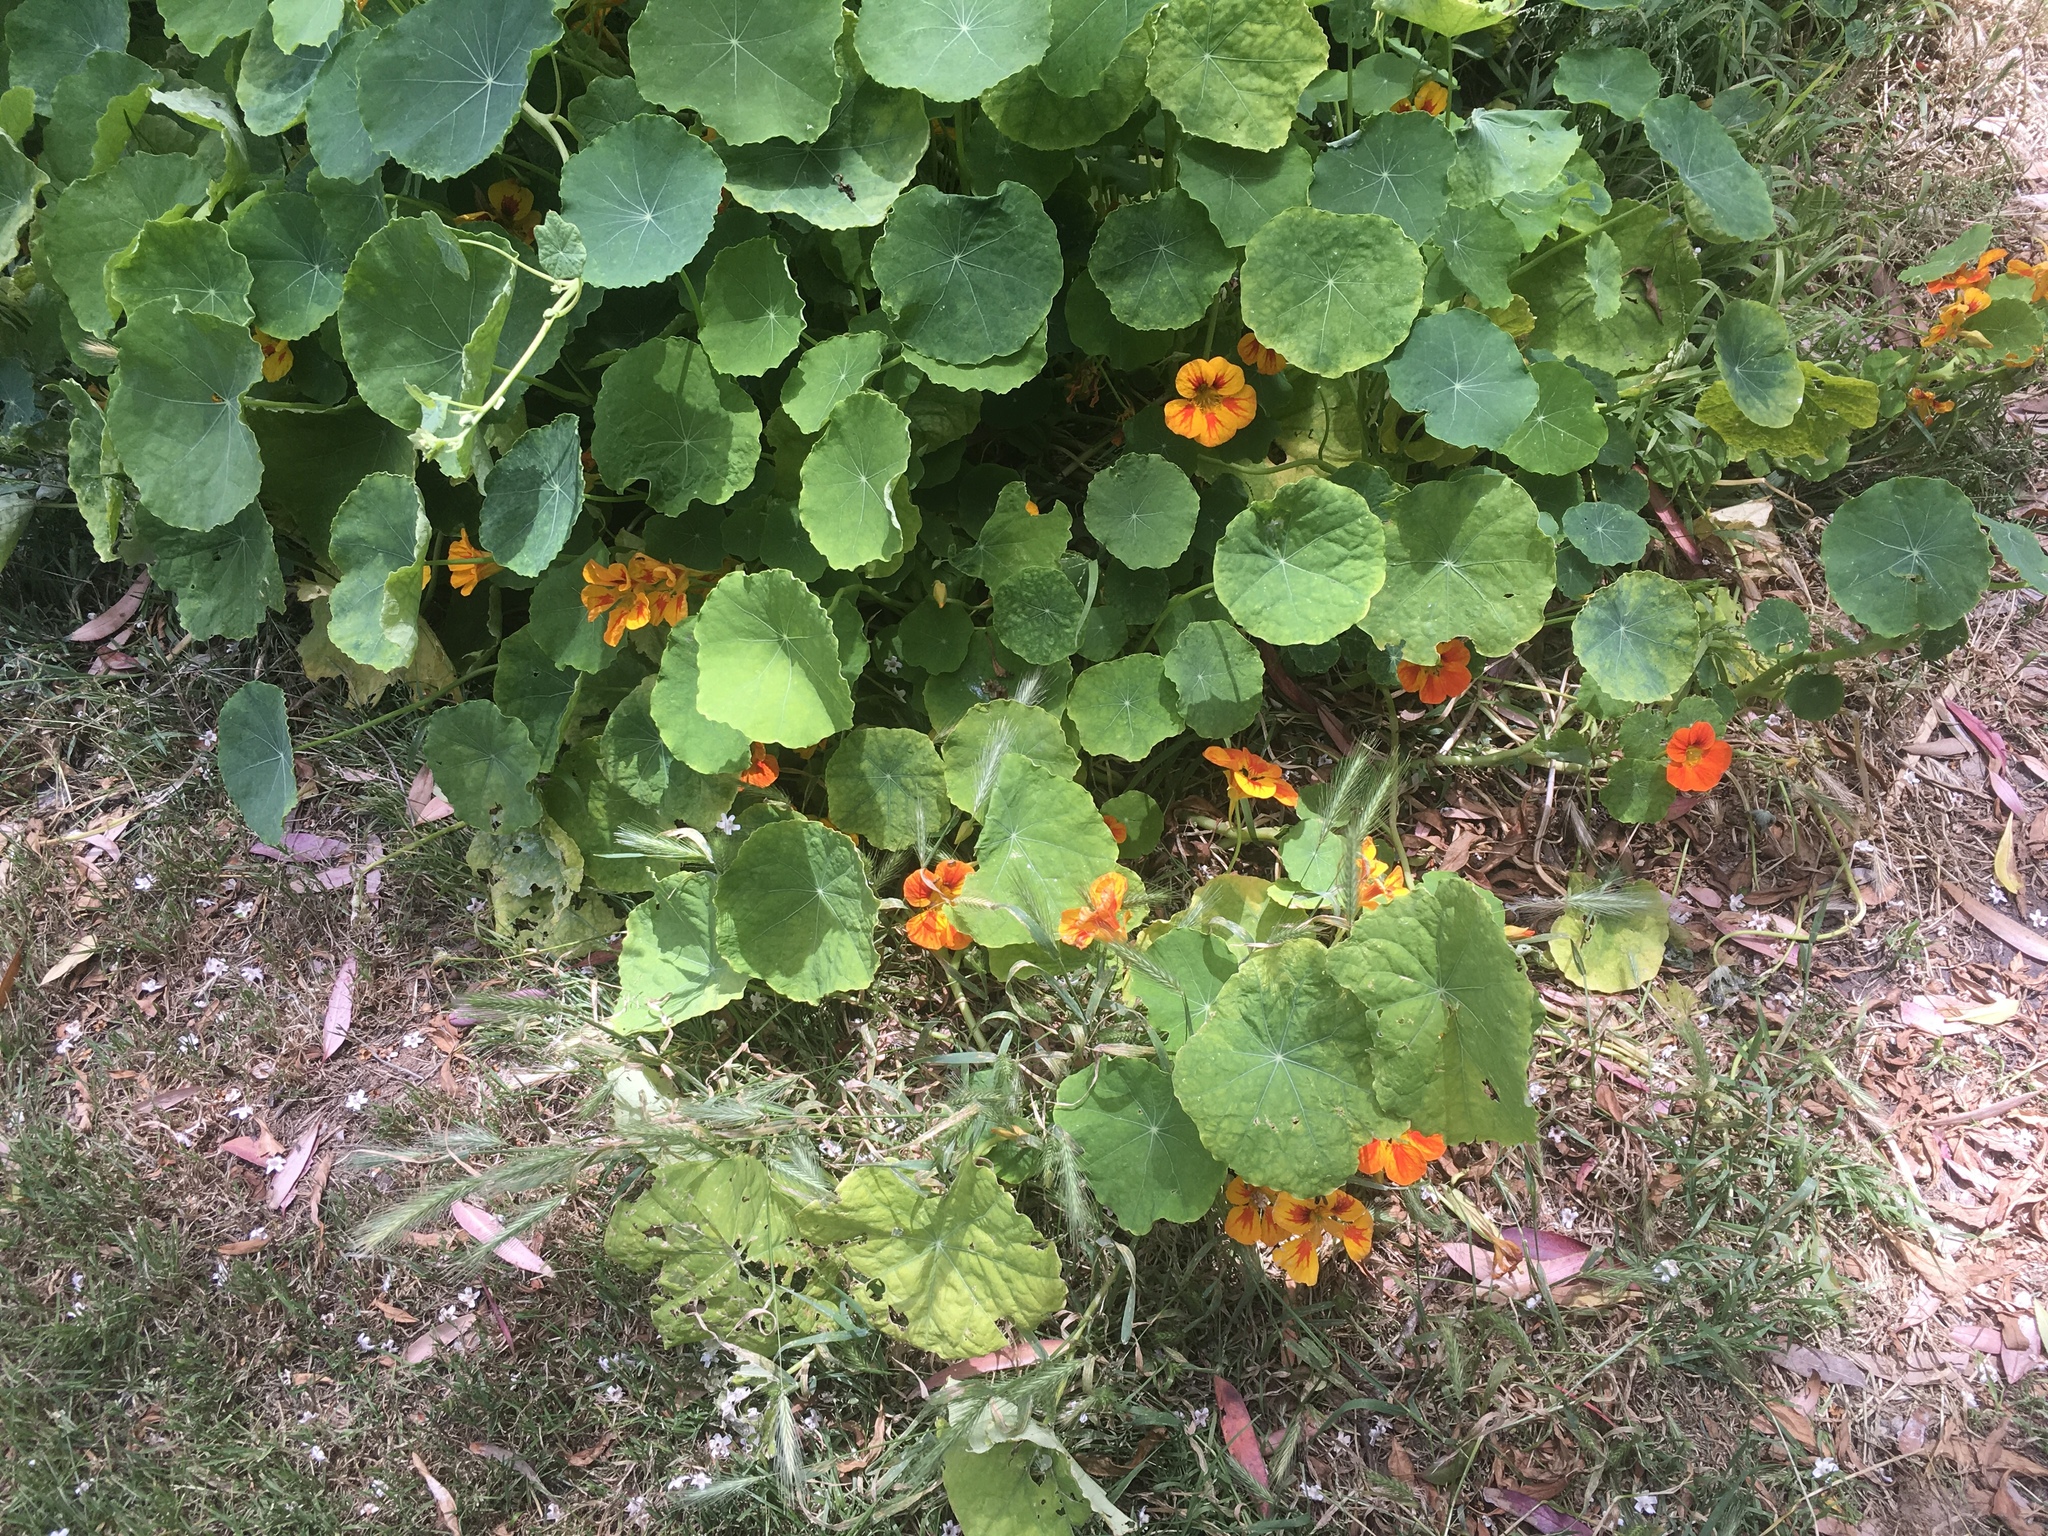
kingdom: Plantae
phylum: Tracheophyta
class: Magnoliopsida
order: Brassicales
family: Tropaeolaceae
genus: Tropaeolum
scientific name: Tropaeolum majus
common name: Nasturtium
